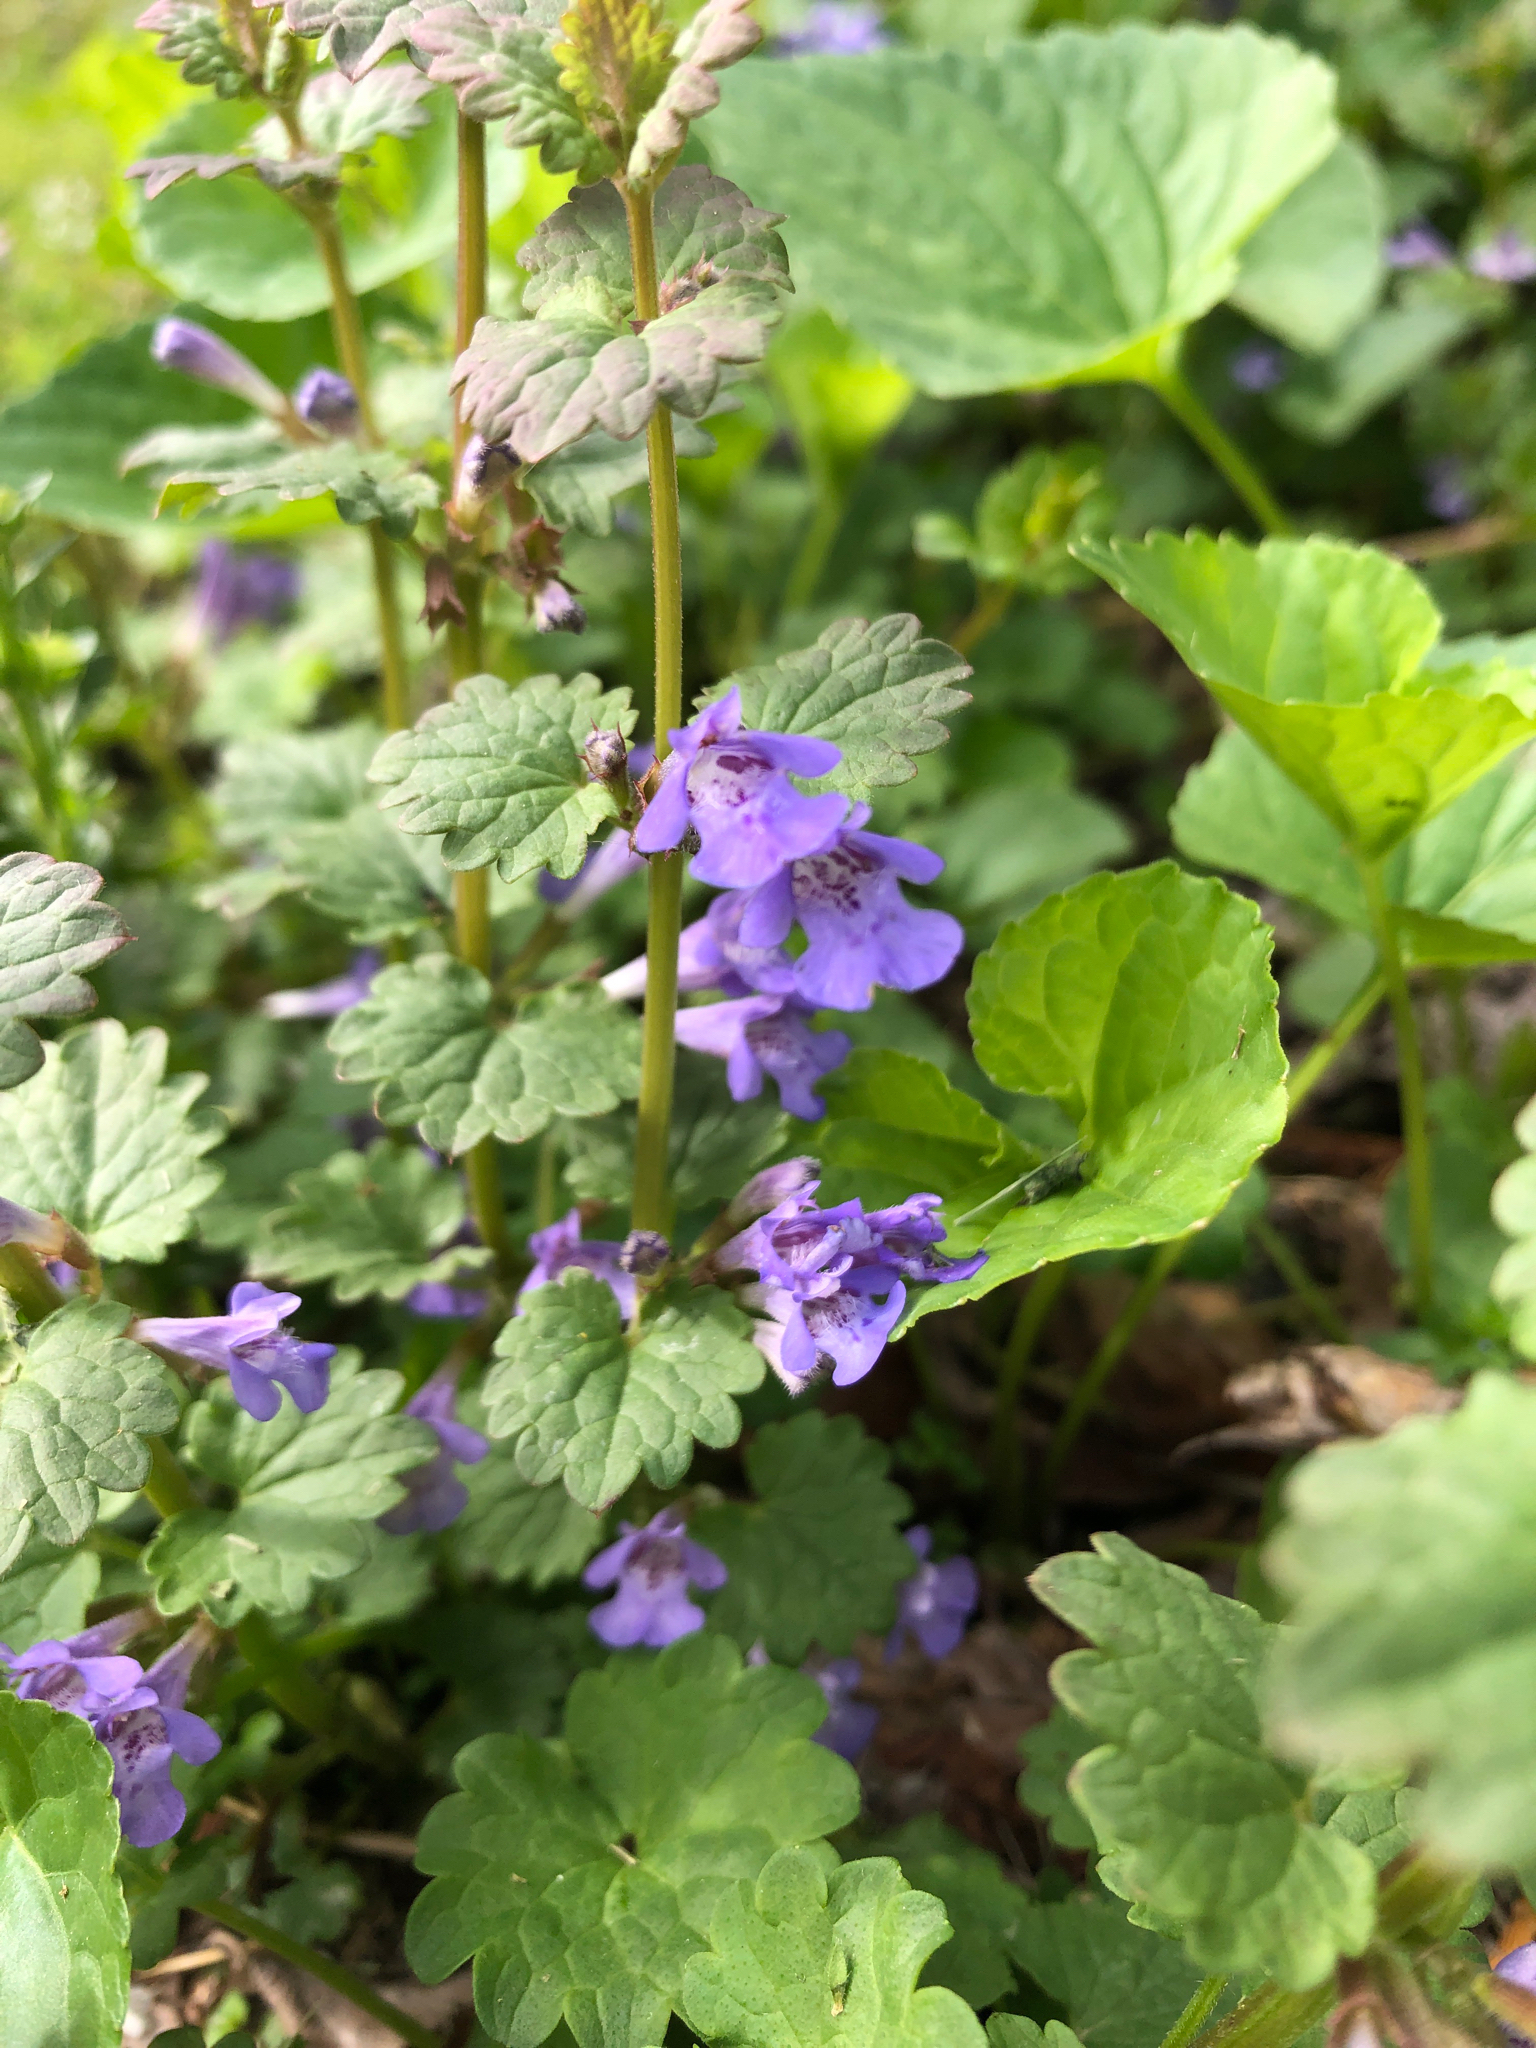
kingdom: Plantae
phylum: Tracheophyta
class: Magnoliopsida
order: Lamiales
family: Lamiaceae
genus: Glechoma
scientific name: Glechoma hederacea
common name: Ground ivy
